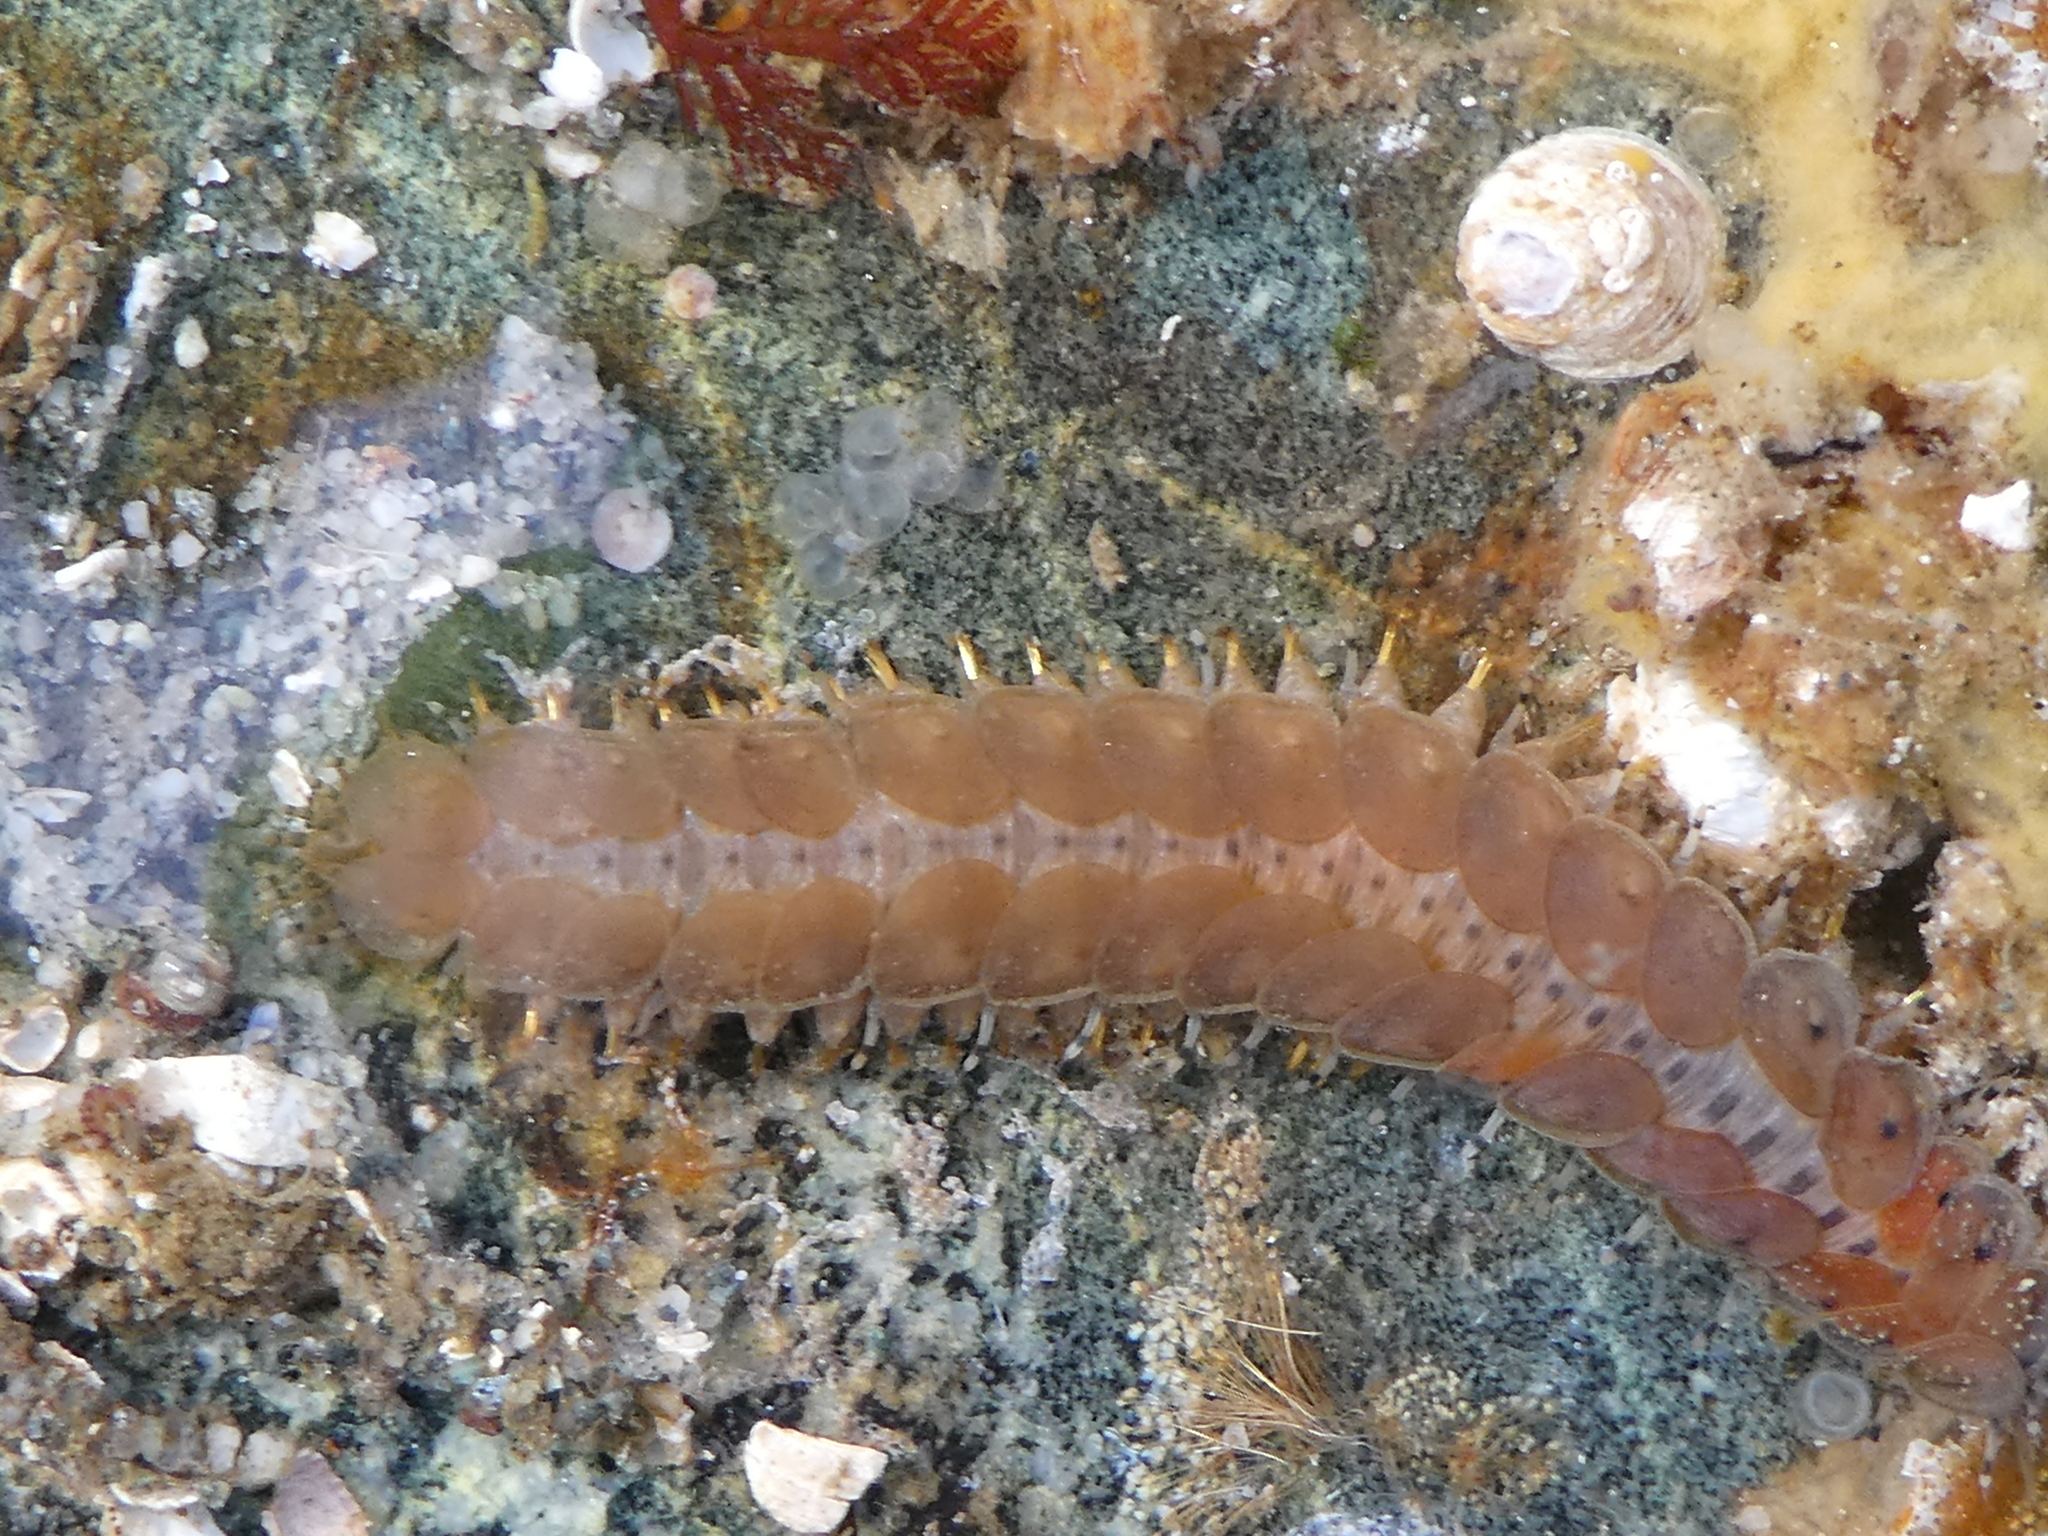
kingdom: Animalia
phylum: Annelida
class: Polychaeta
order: Phyllodocida
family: Polynoidae
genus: Halosydna
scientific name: Halosydna brevisetosa
